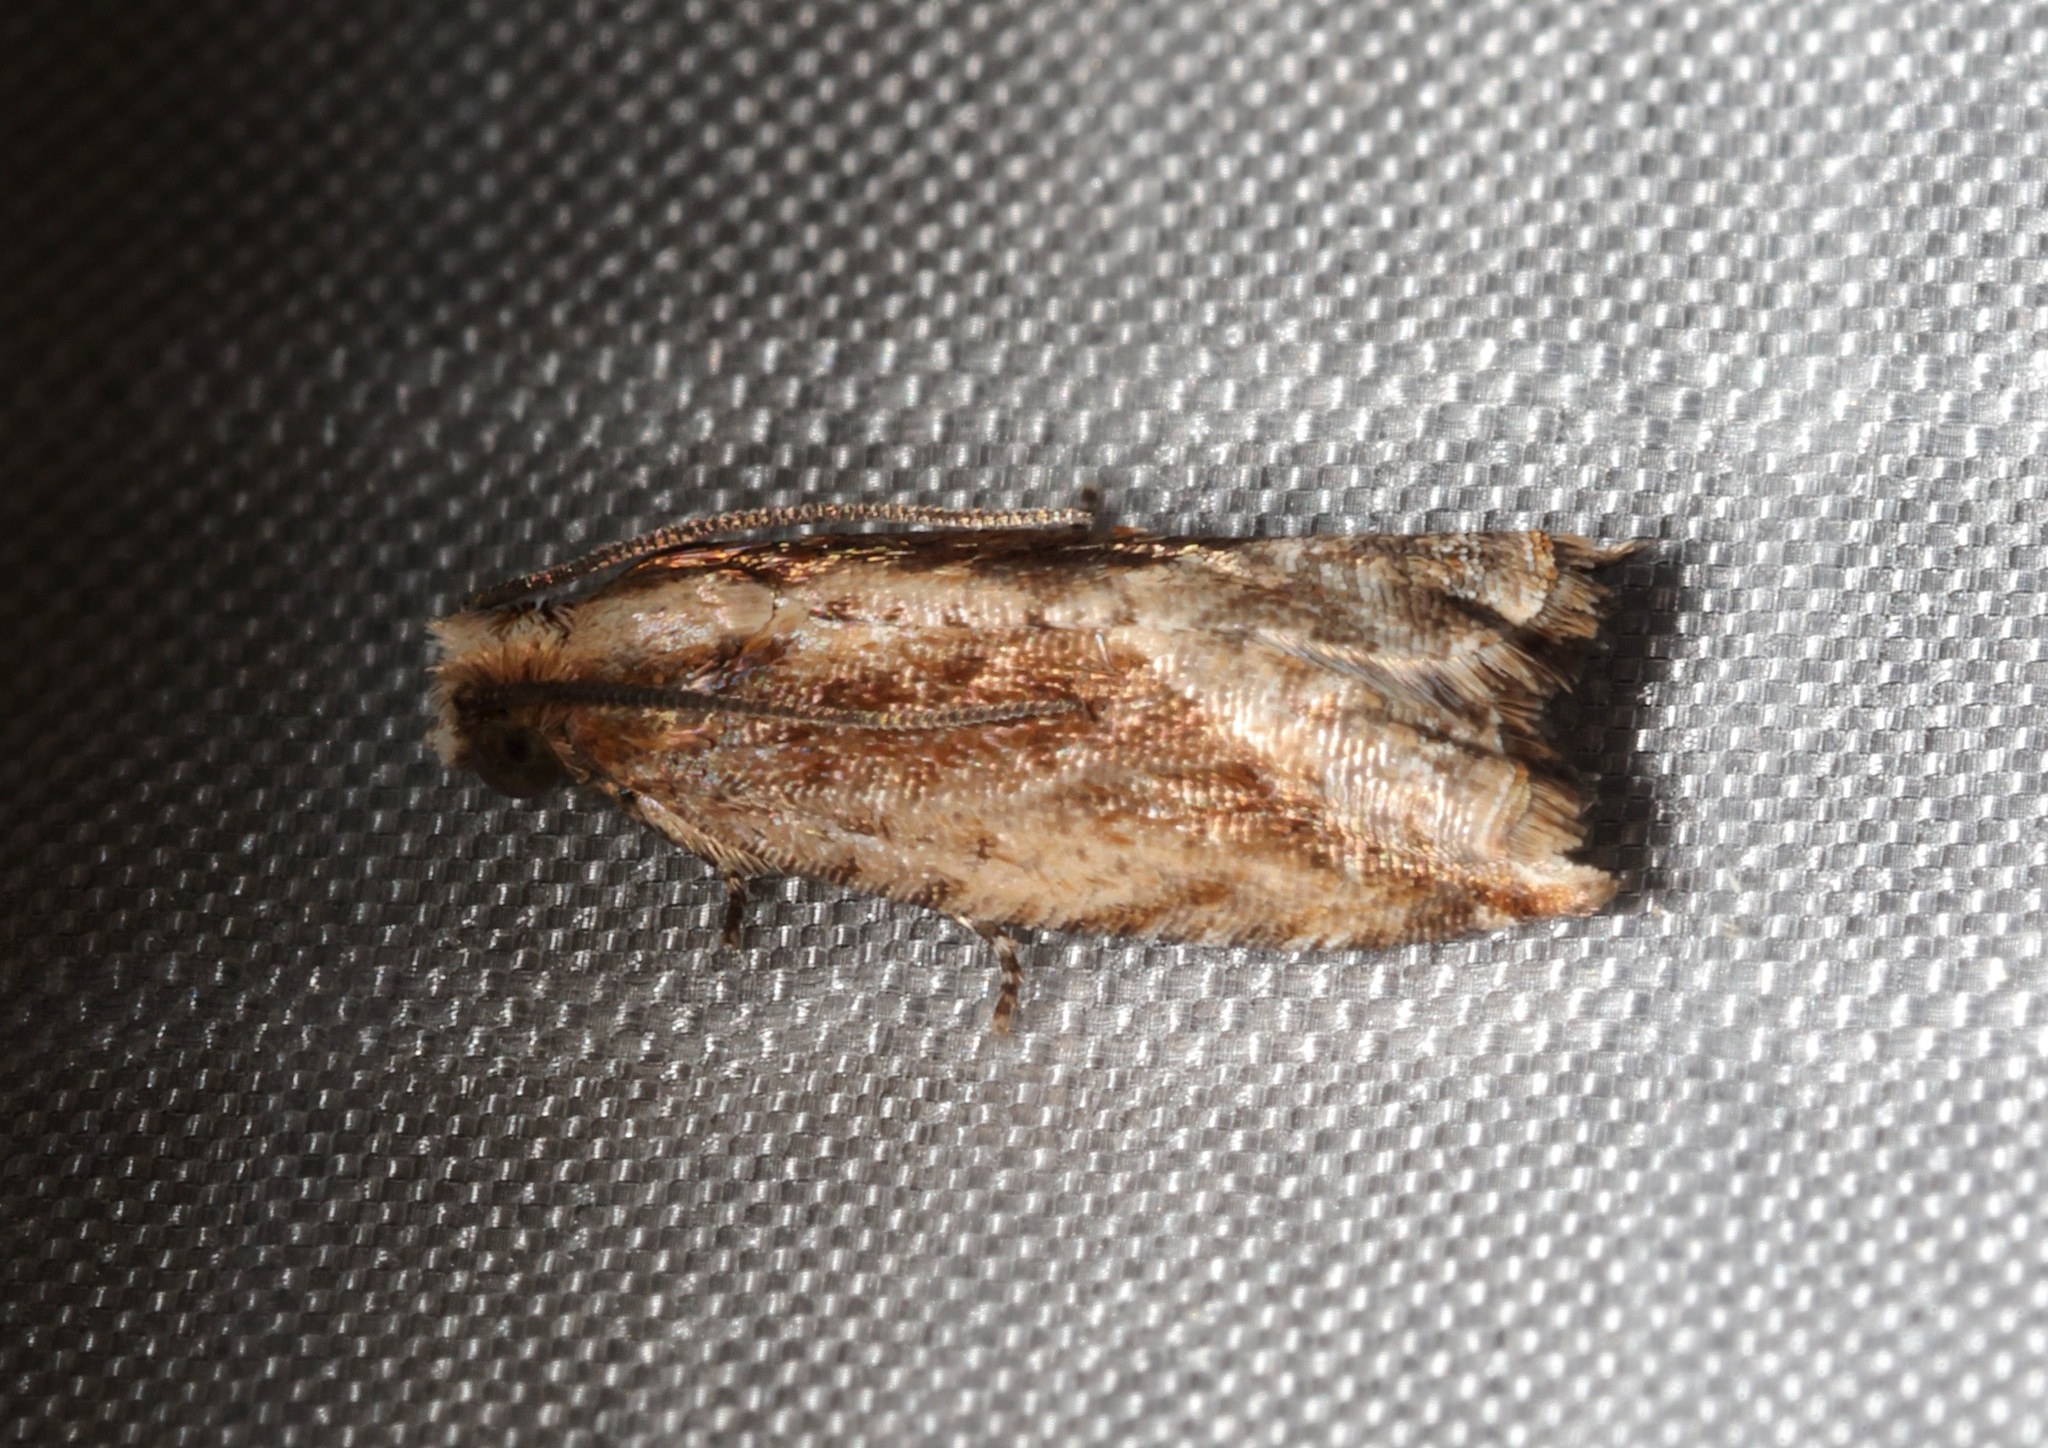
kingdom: Animalia
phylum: Arthropoda
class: Insecta
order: Lepidoptera
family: Tortricidae
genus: Spilonota
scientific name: Spilonota mortuana
